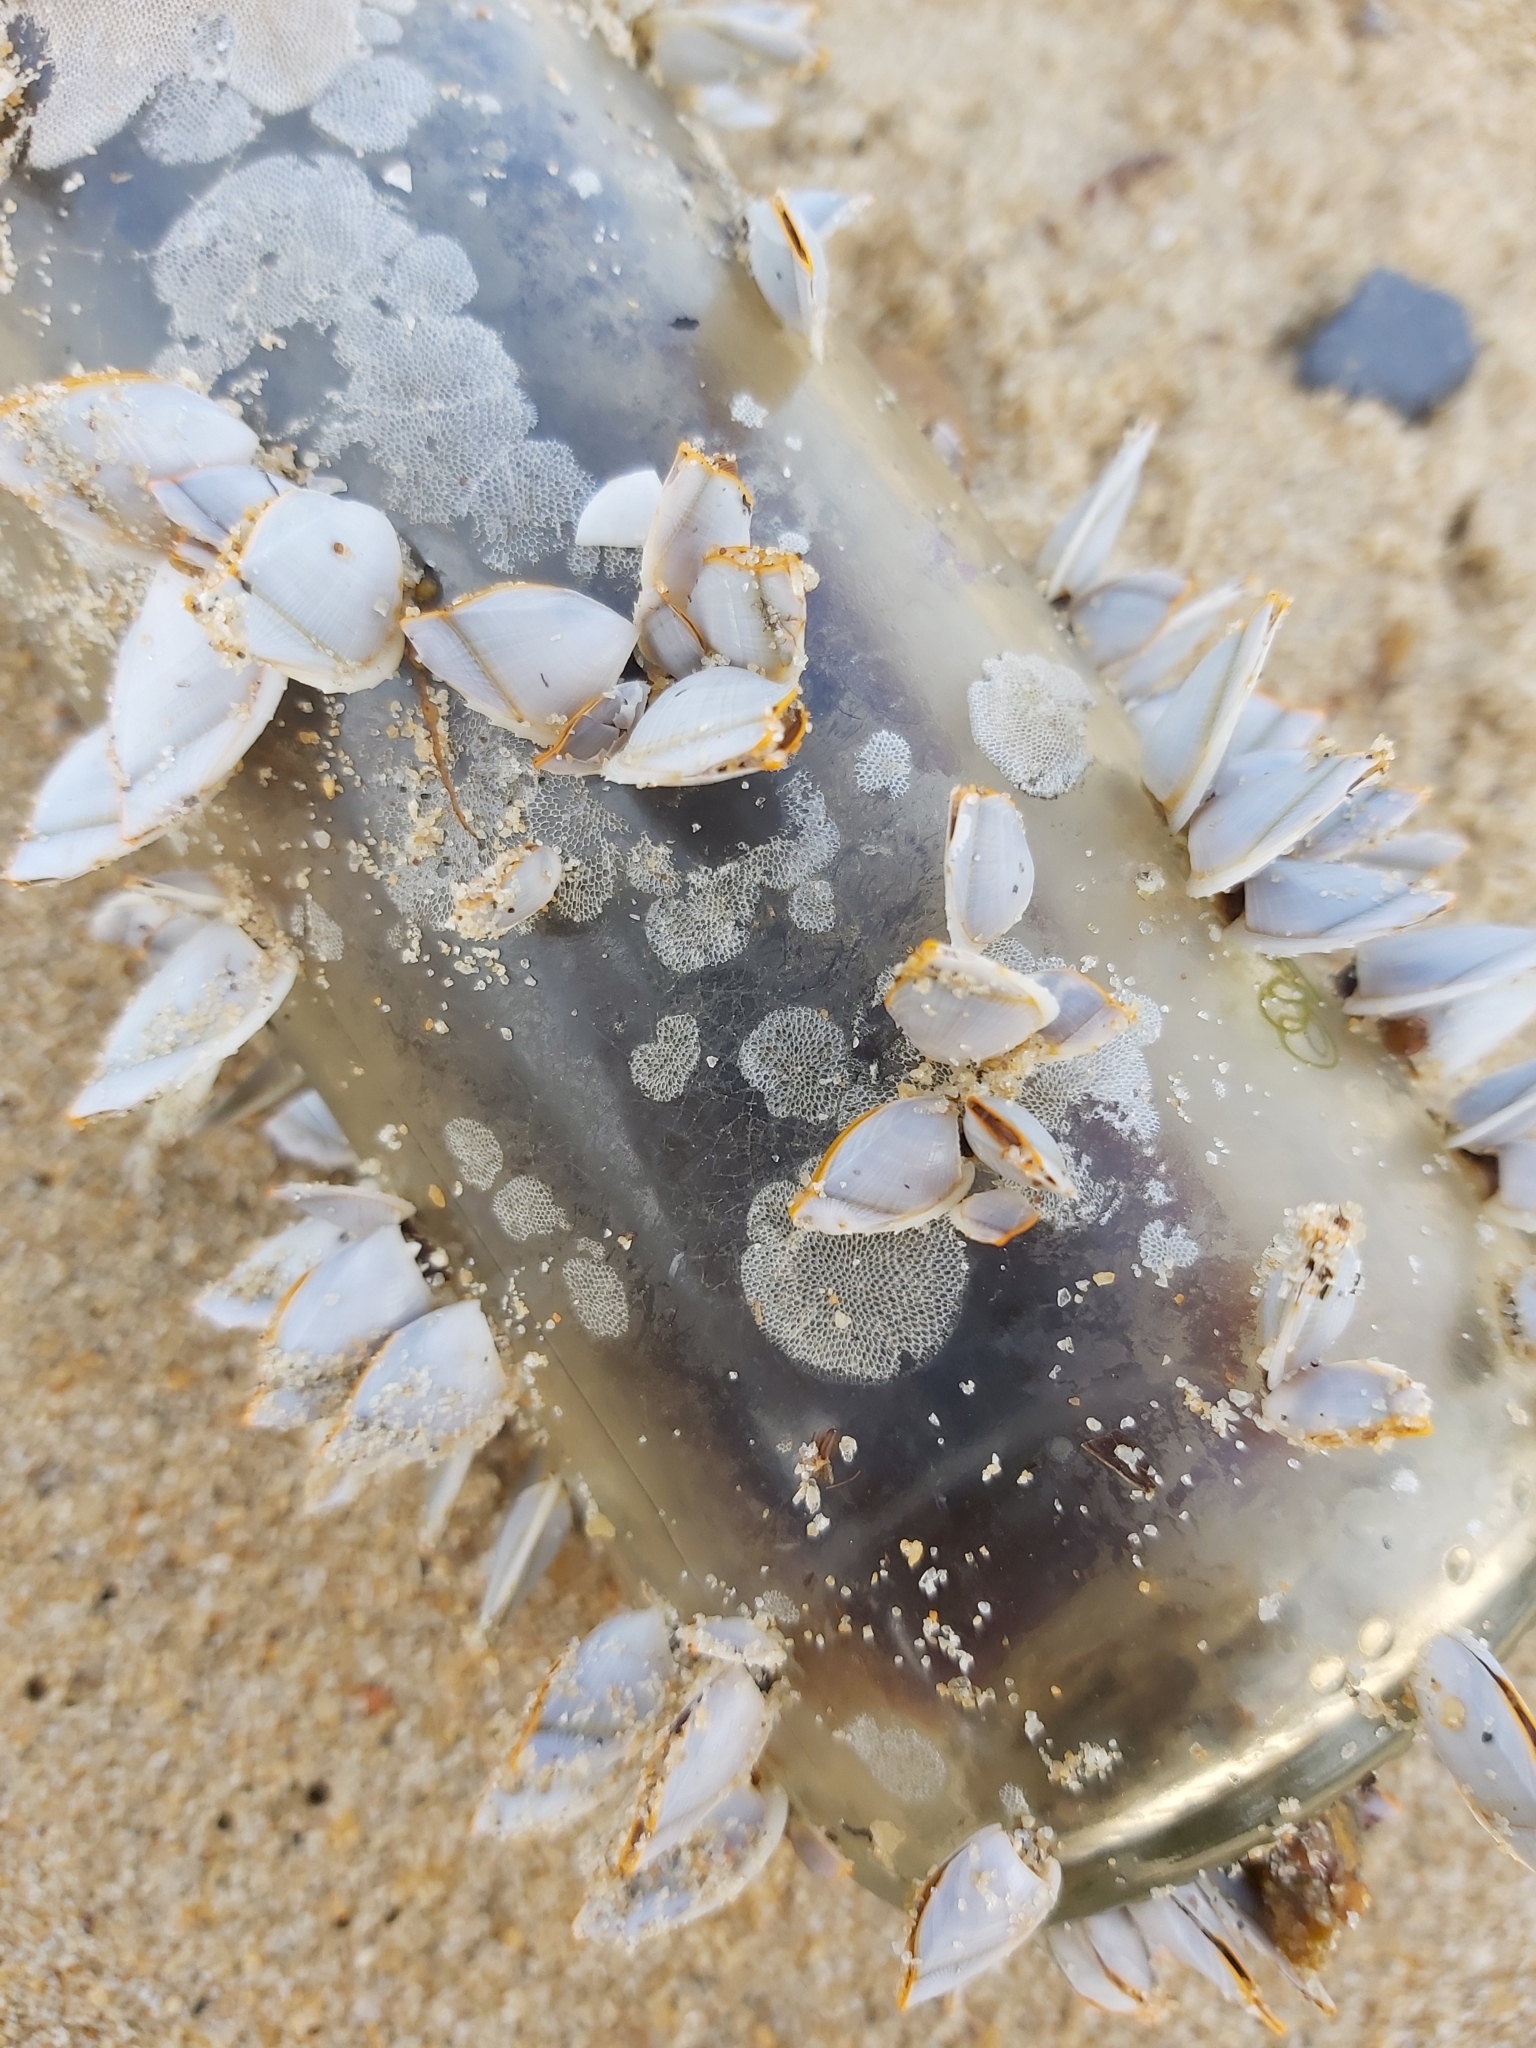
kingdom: Animalia
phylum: Arthropoda
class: Maxillopoda
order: Pedunculata
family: Lepadidae
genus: Lepas
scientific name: Lepas anserifera
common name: Goose barnacle
